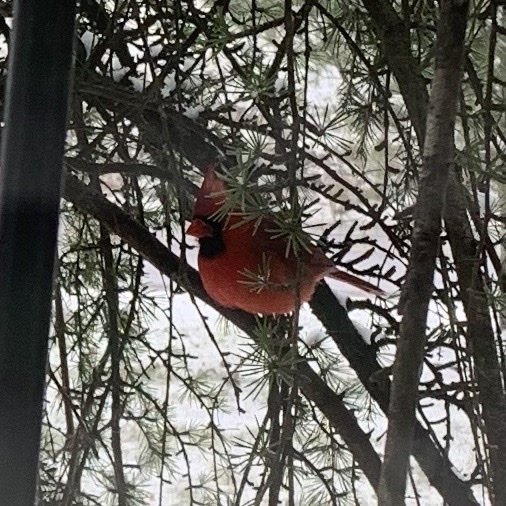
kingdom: Animalia
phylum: Chordata
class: Aves
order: Passeriformes
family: Cardinalidae
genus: Cardinalis
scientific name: Cardinalis cardinalis
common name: Northern cardinal
